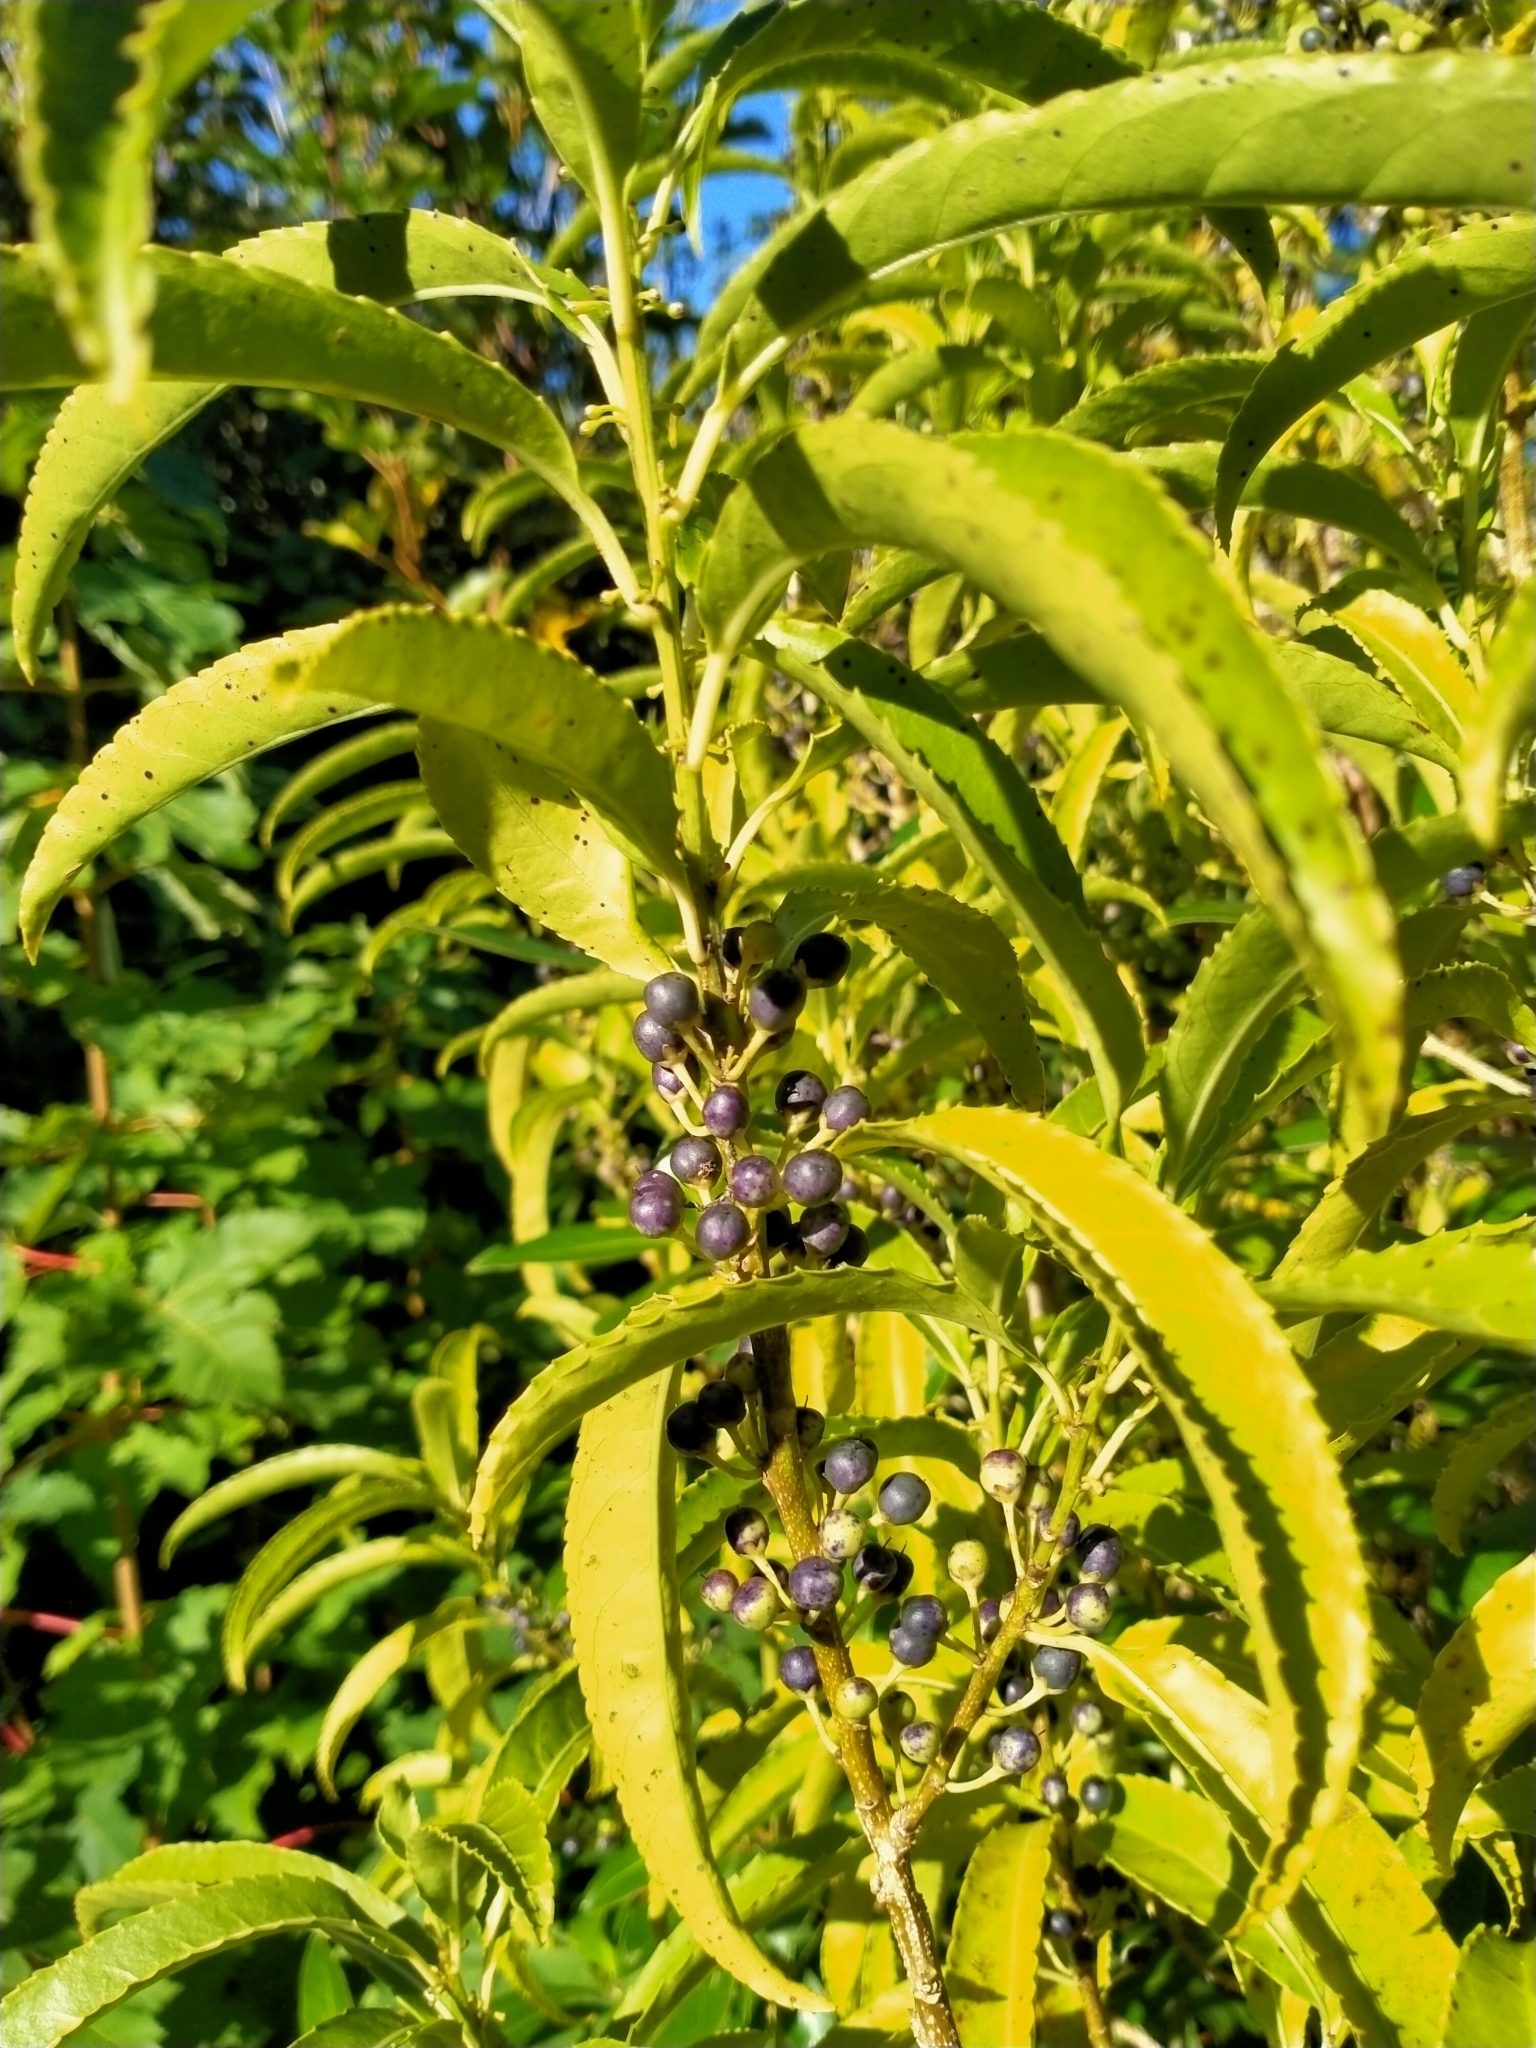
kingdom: Plantae
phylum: Tracheophyta
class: Magnoliopsida
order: Malpighiales
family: Violaceae
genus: Melicytus
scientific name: Melicytus lanceolatus
